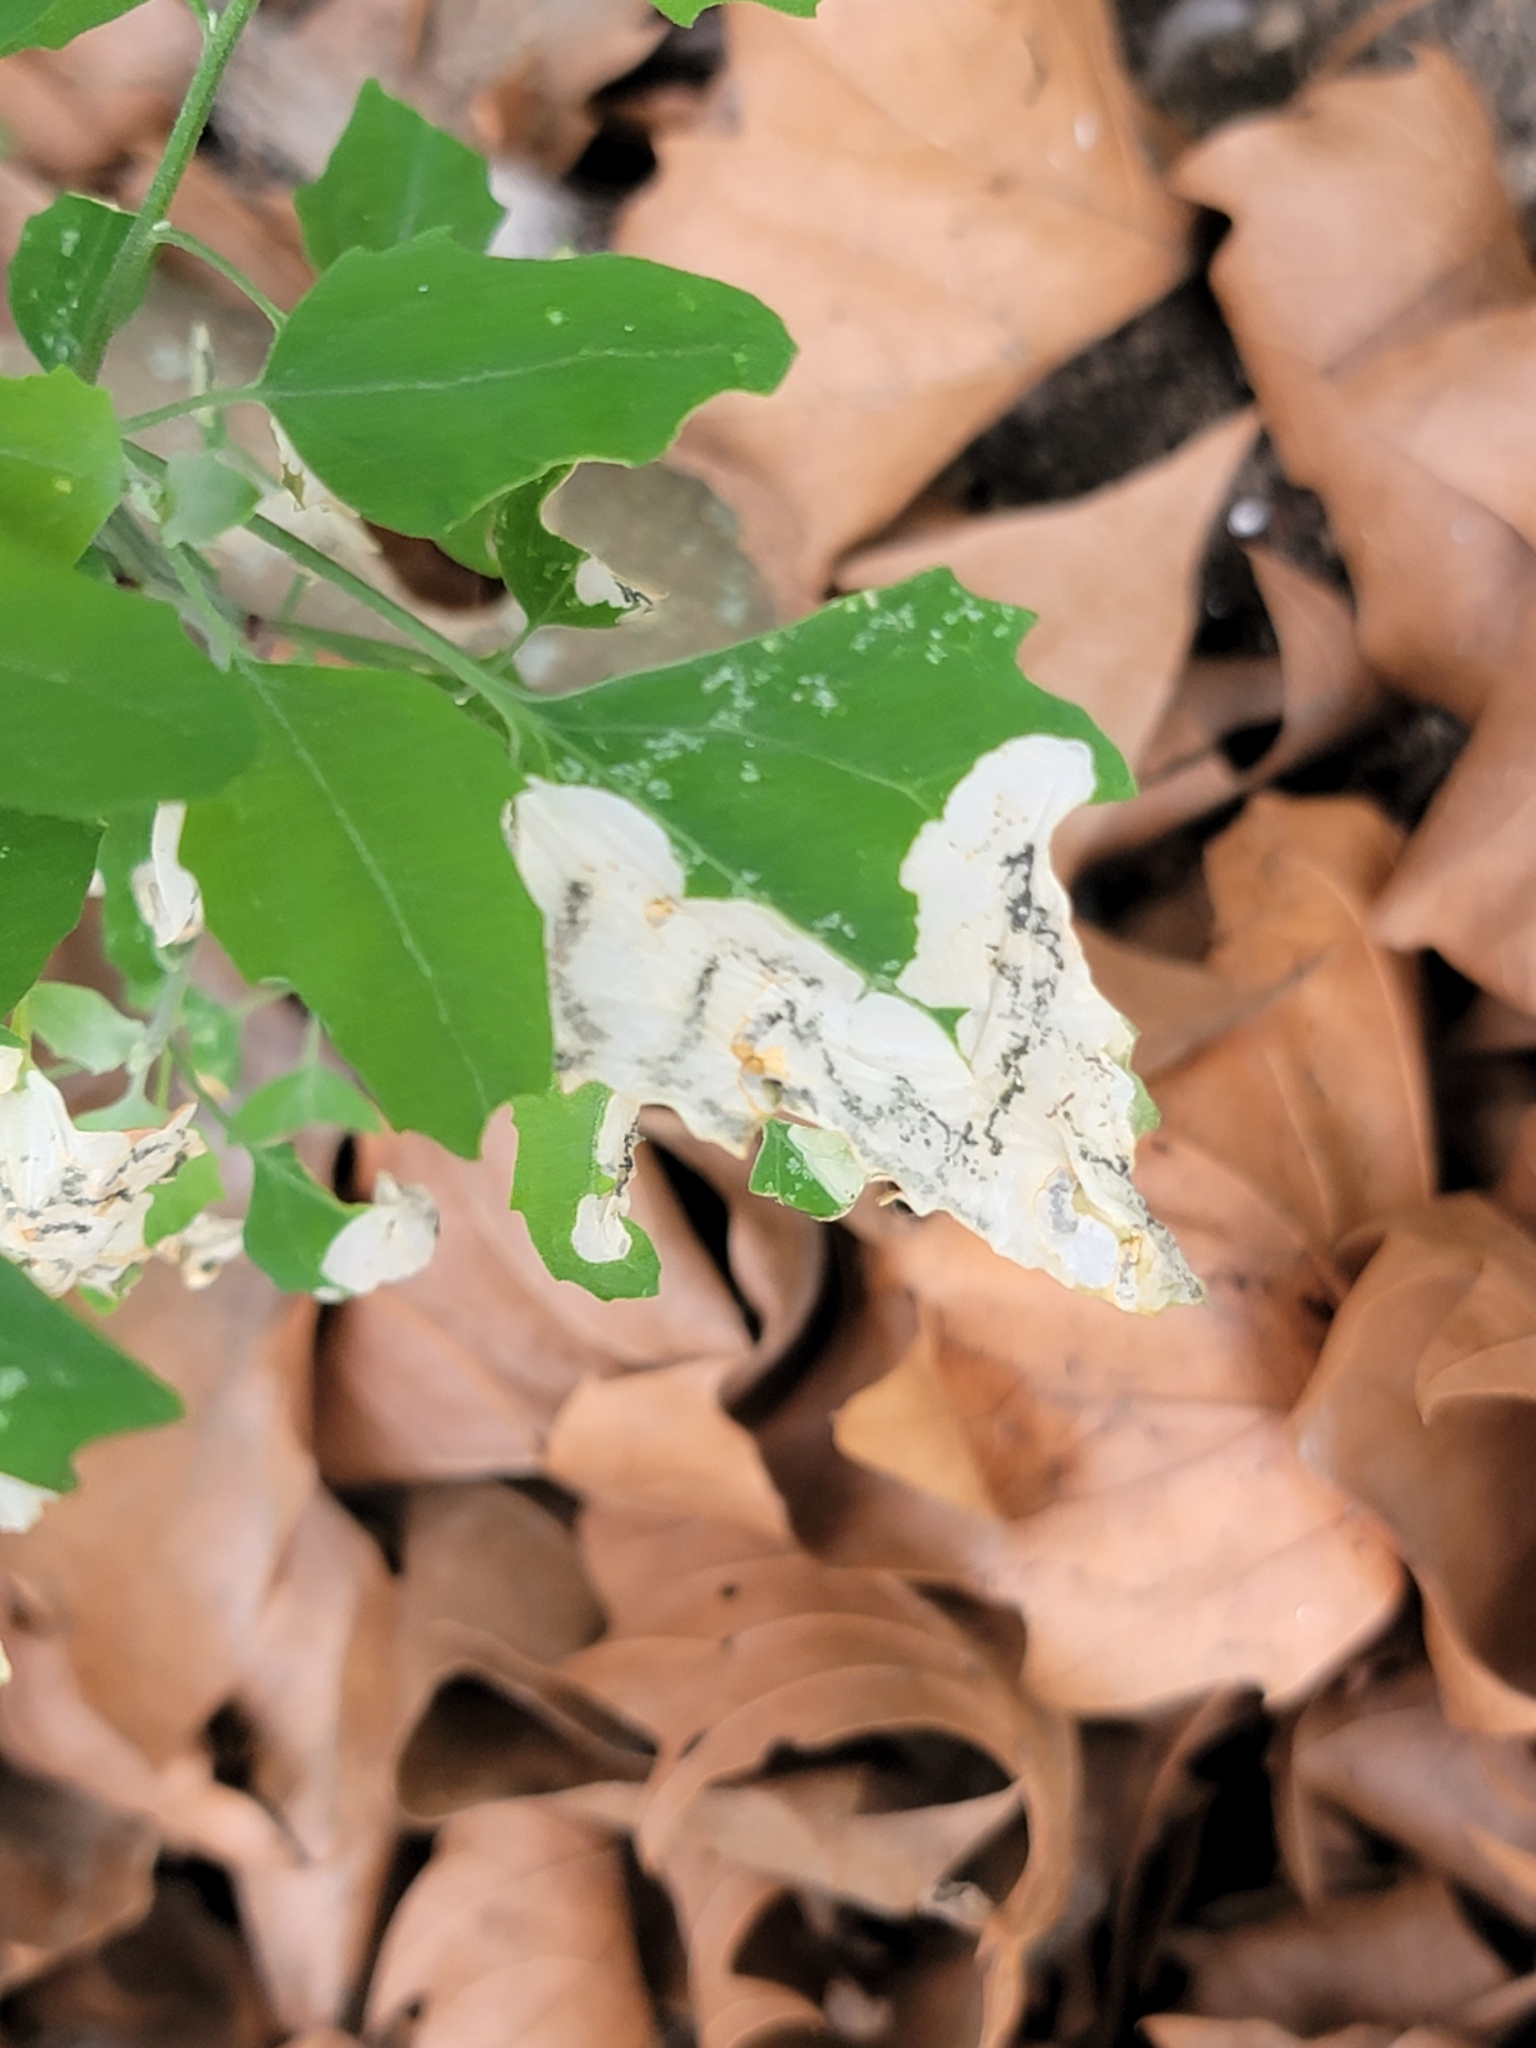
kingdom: Animalia
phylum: Arthropoda
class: Insecta
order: Lepidoptera
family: Gelechiidae
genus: Chrysoesthia
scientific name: Chrysoesthia sexguttella
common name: Moth
